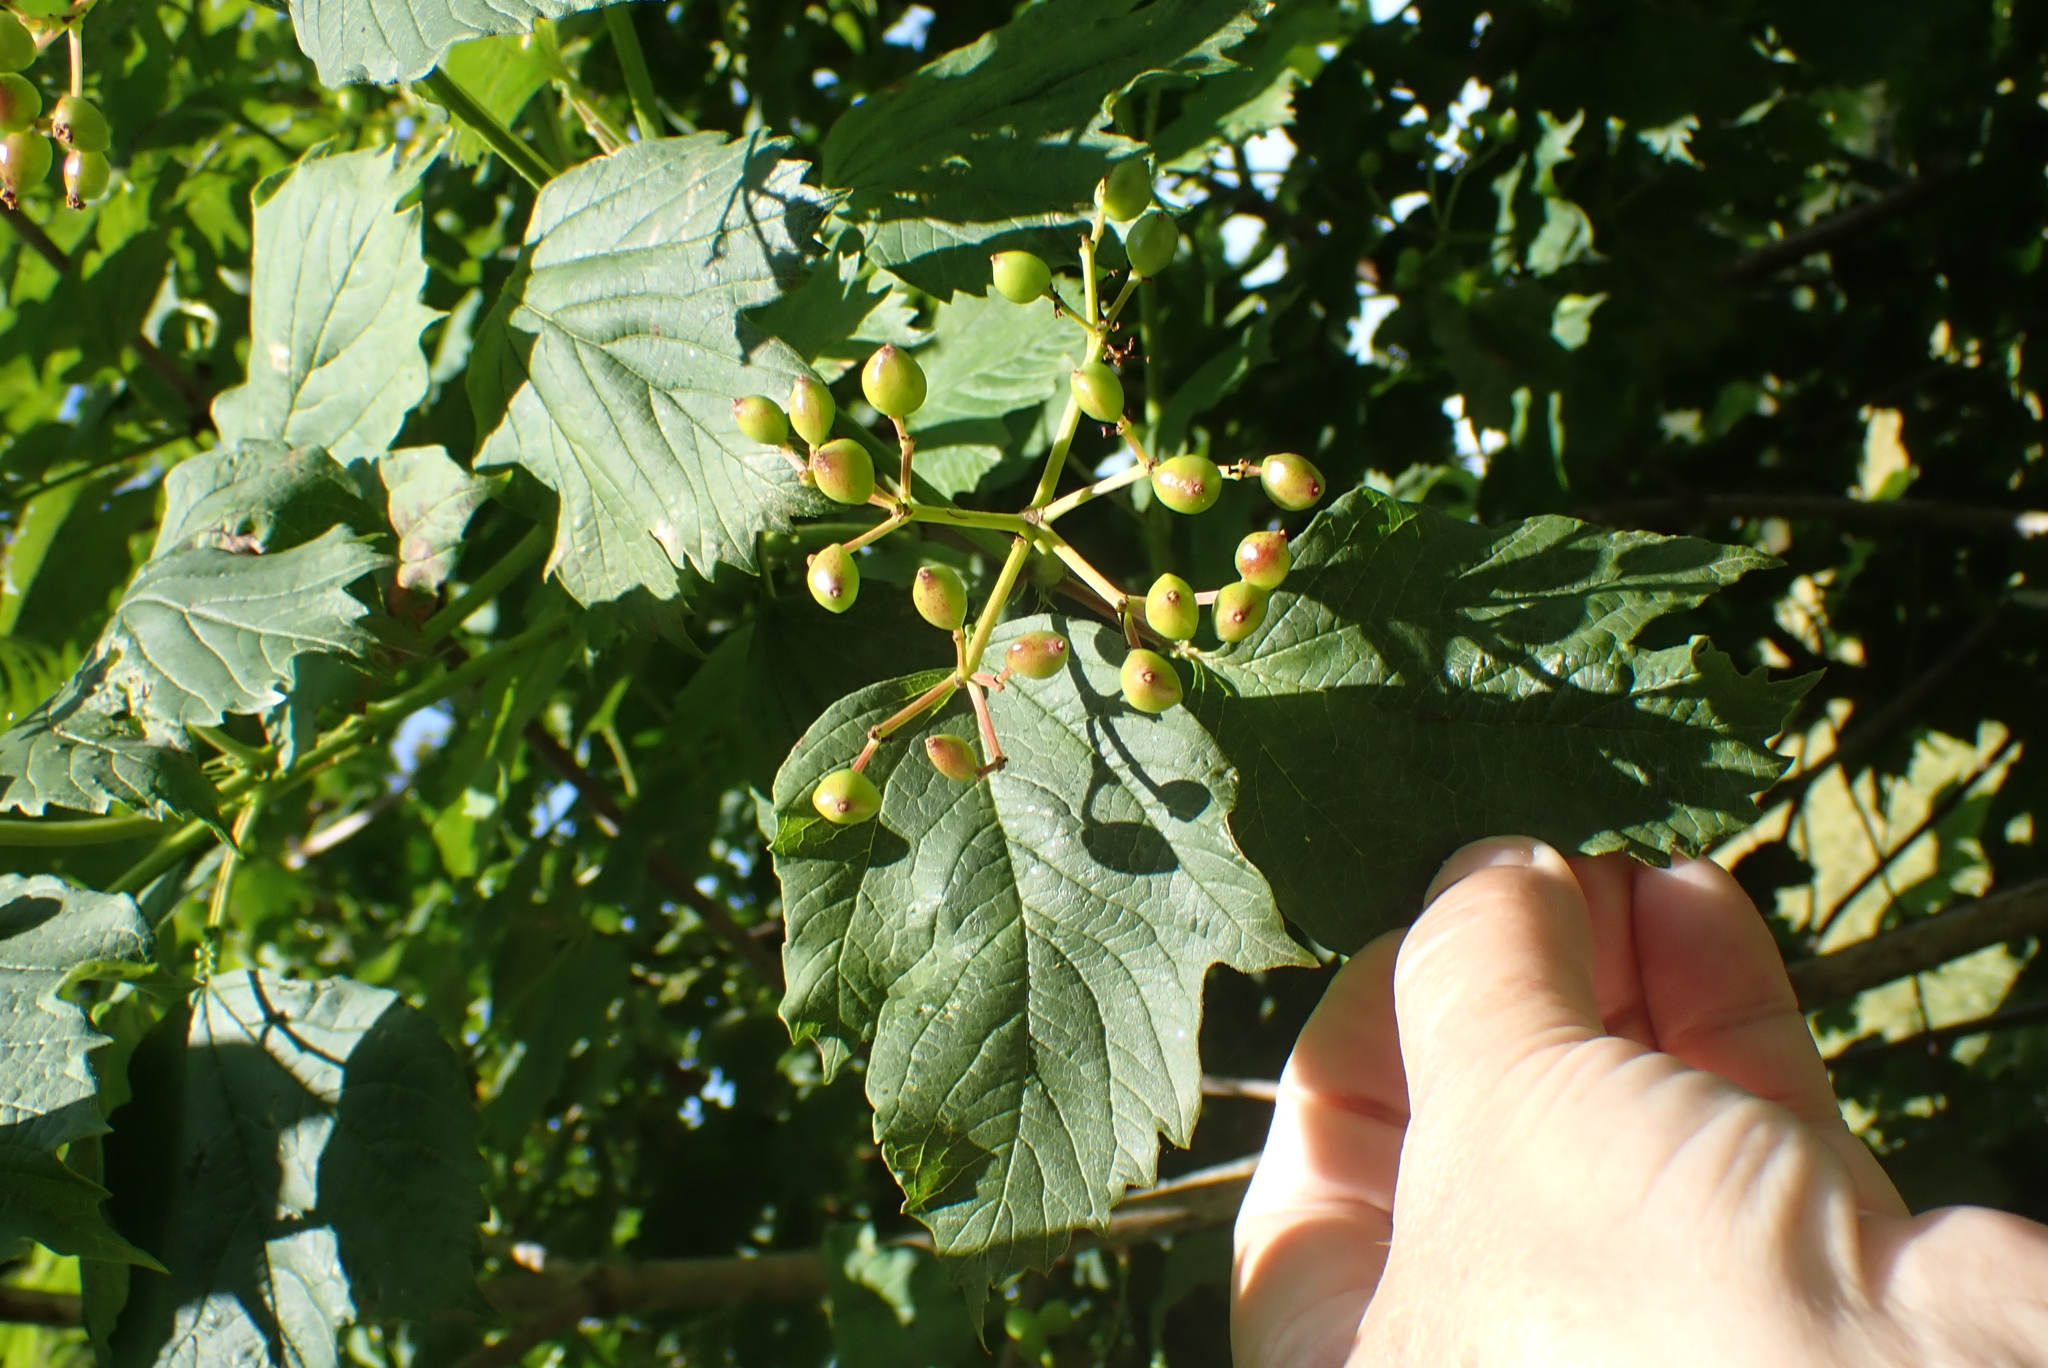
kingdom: Plantae
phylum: Tracheophyta
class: Magnoliopsida
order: Dipsacales
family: Viburnaceae
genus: Viburnum
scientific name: Viburnum opulus
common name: Guelder-rose
